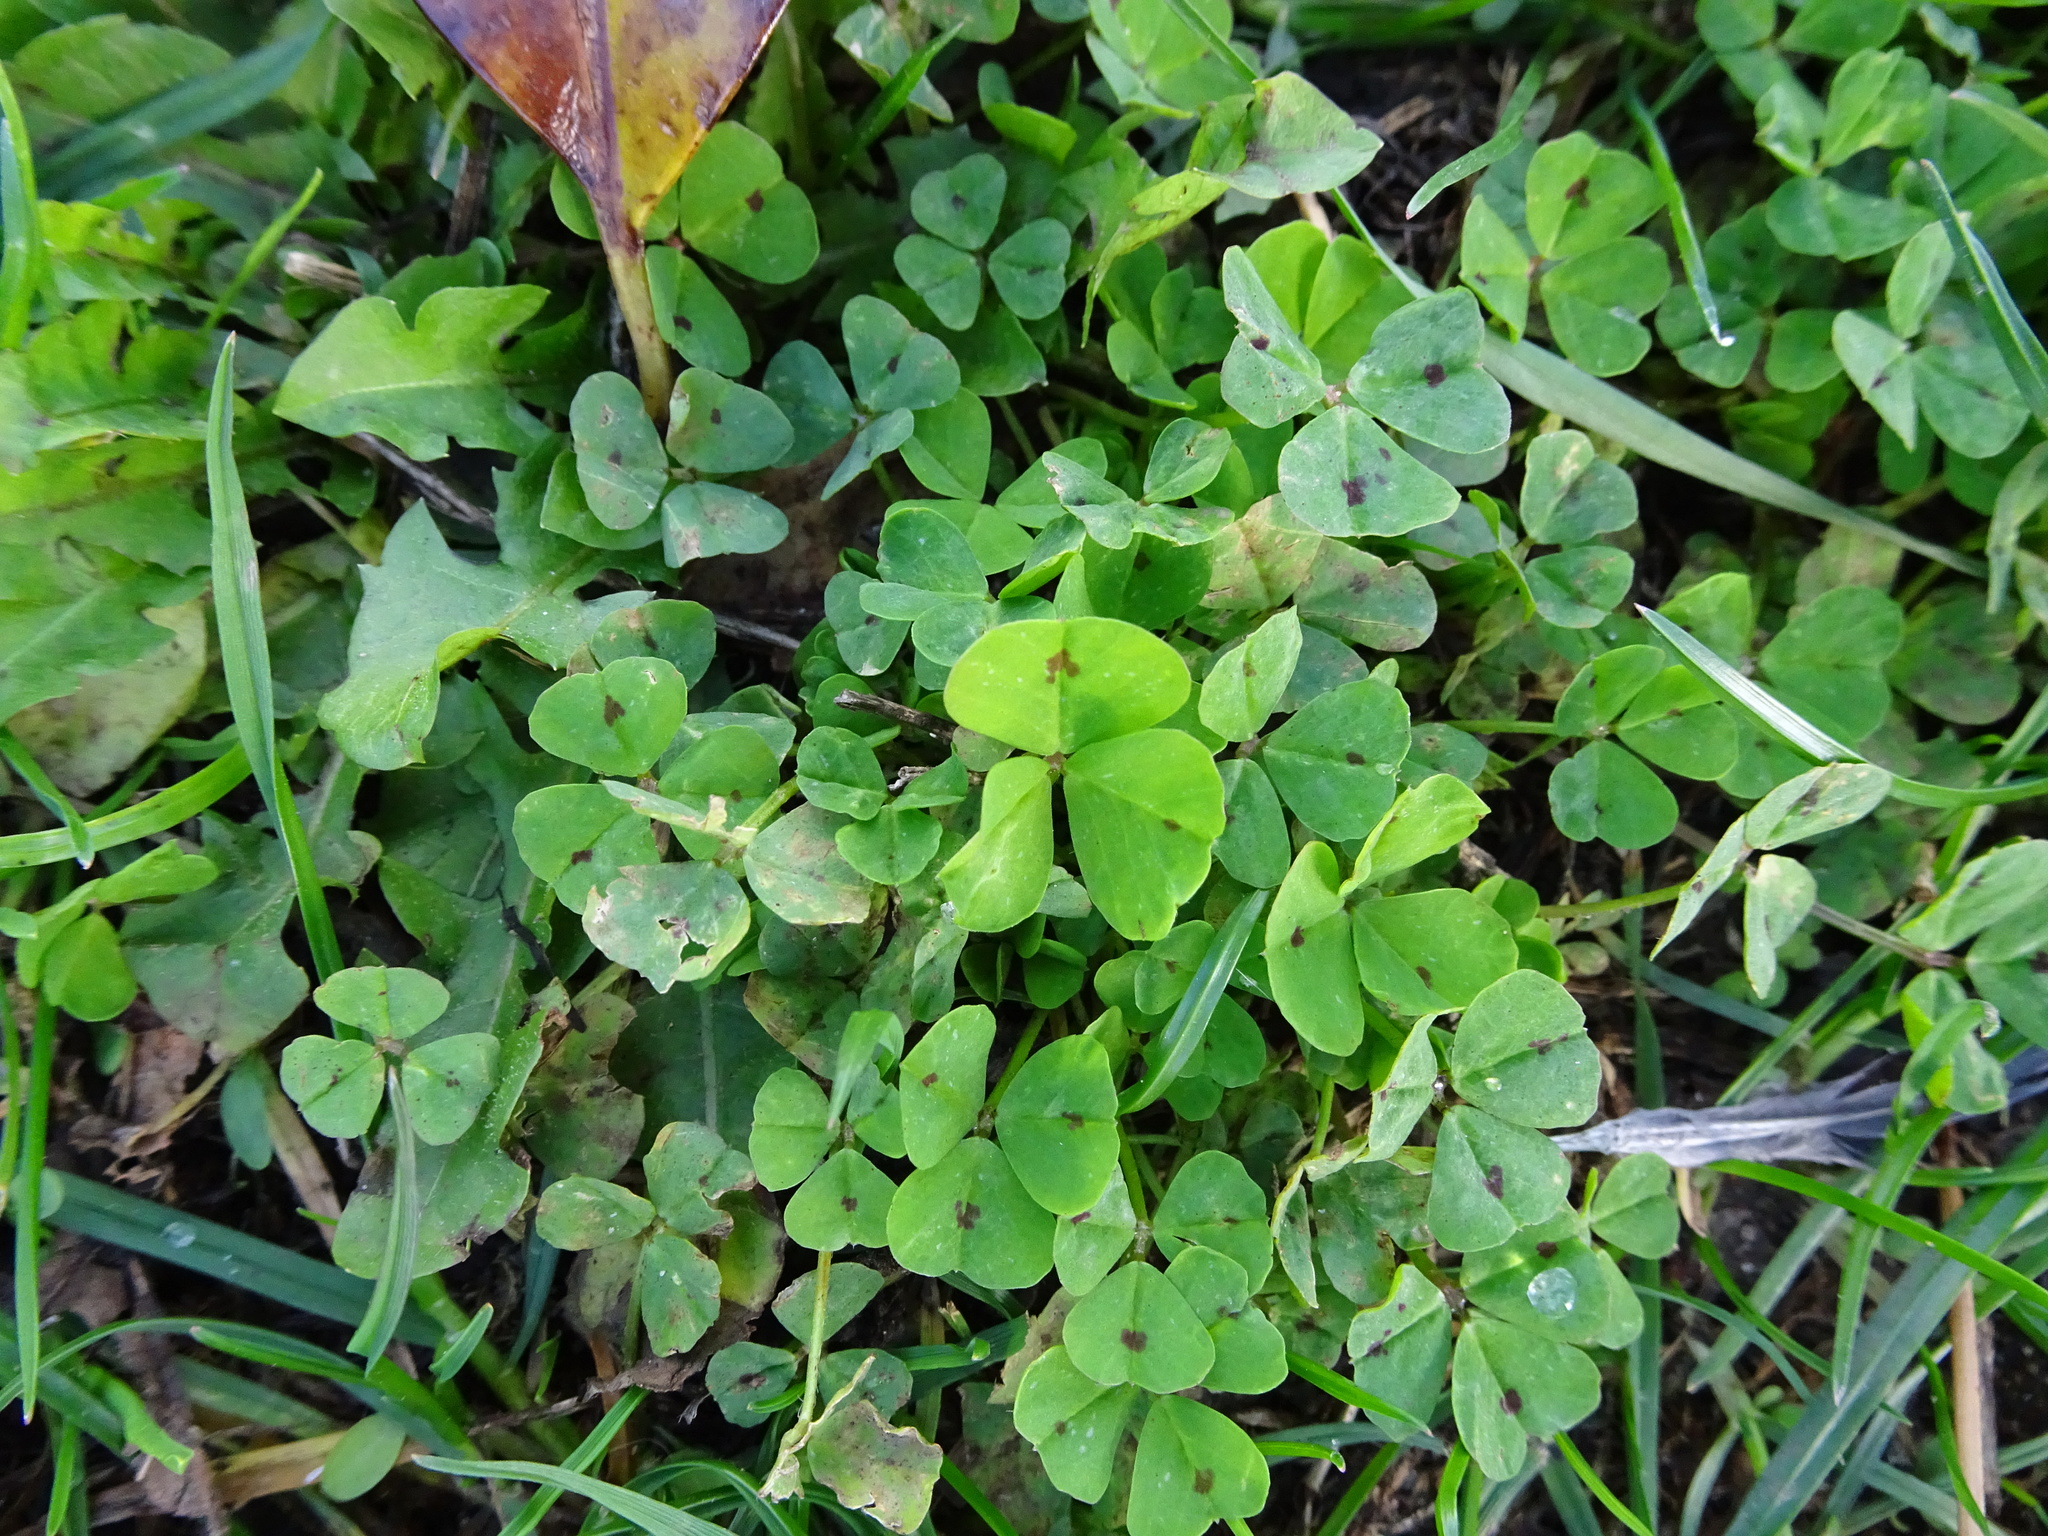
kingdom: Plantae
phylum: Tracheophyta
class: Magnoliopsida
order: Fabales
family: Fabaceae
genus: Medicago
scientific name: Medicago arabica
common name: Spotted medick
